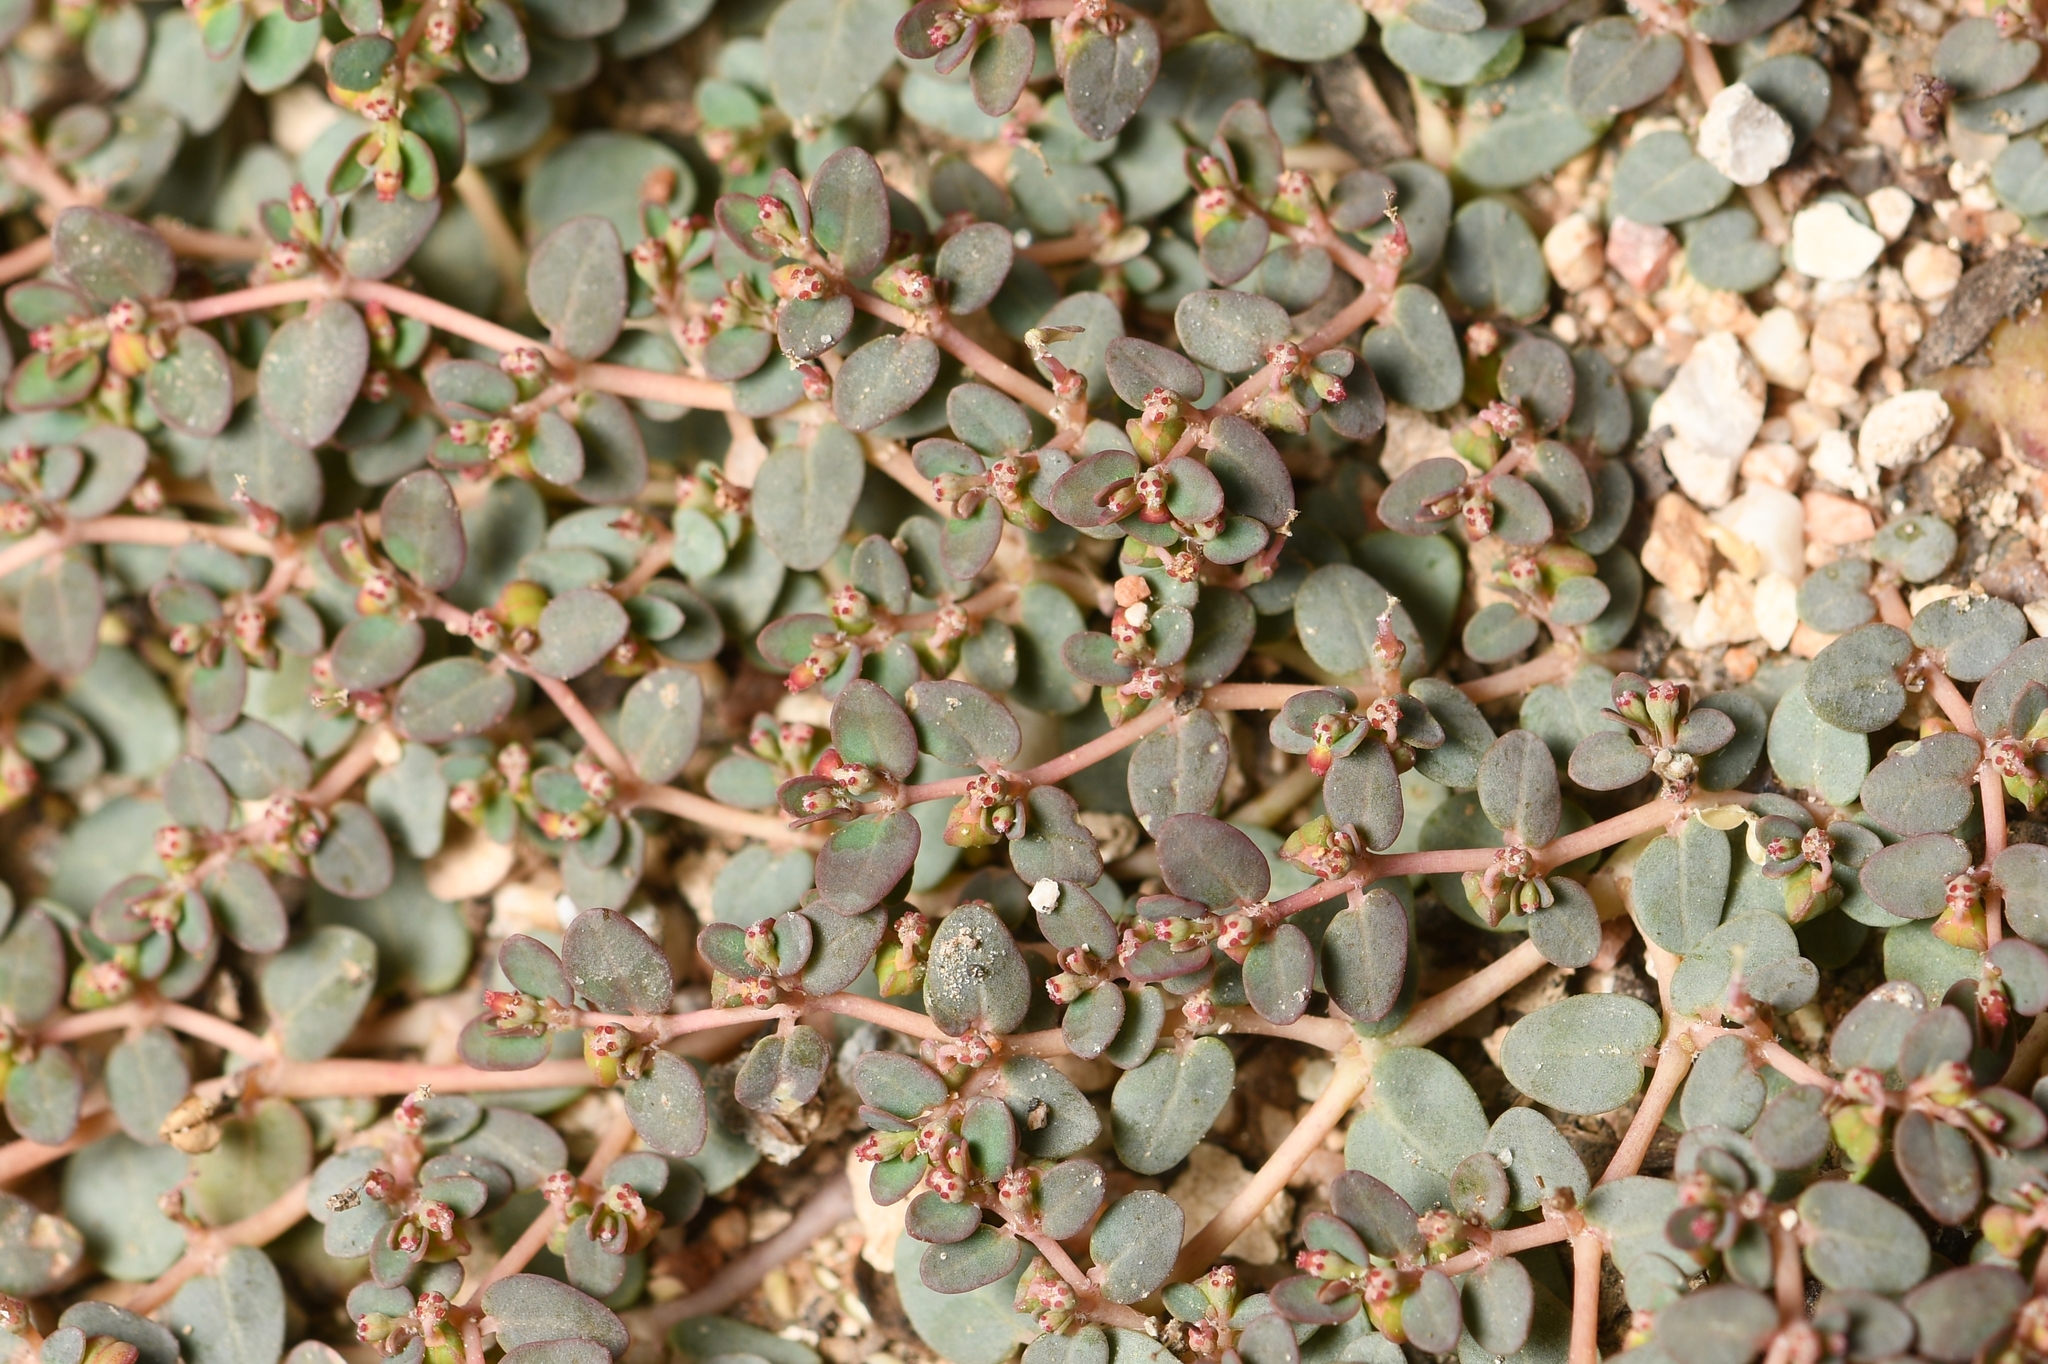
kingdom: Plantae
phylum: Tracheophyta
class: Magnoliopsida
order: Malpighiales
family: Euphorbiaceae
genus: Euphorbia
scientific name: Euphorbia micromera
